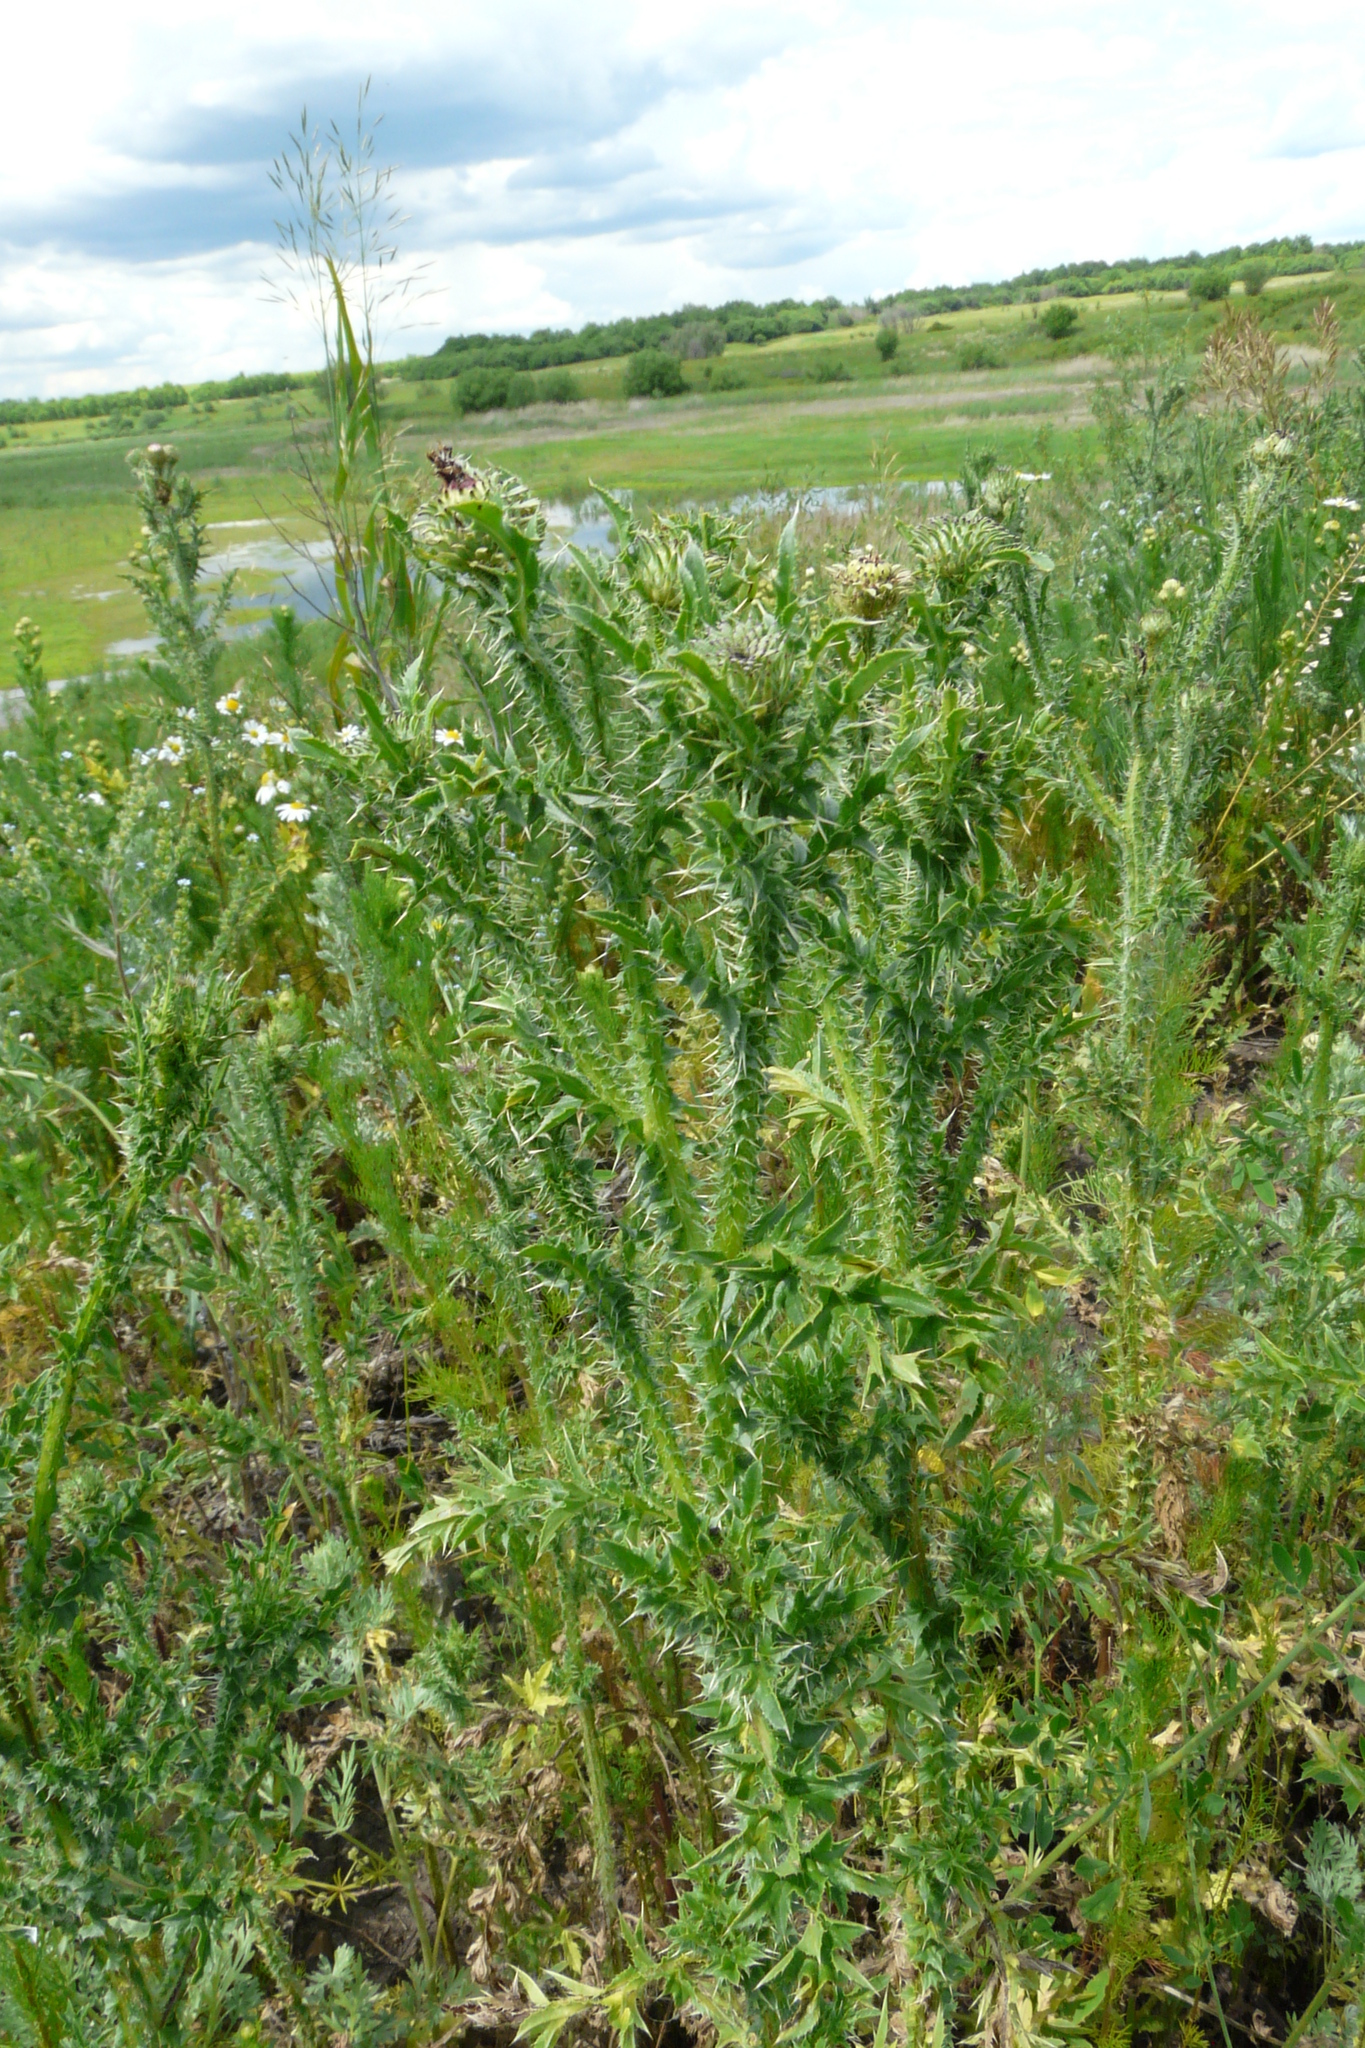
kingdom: Plantae
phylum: Tracheophyta
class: Magnoliopsida
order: Asterales
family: Asteraceae
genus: Carduus
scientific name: Carduus acanthoides
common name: Plumeless thistle
